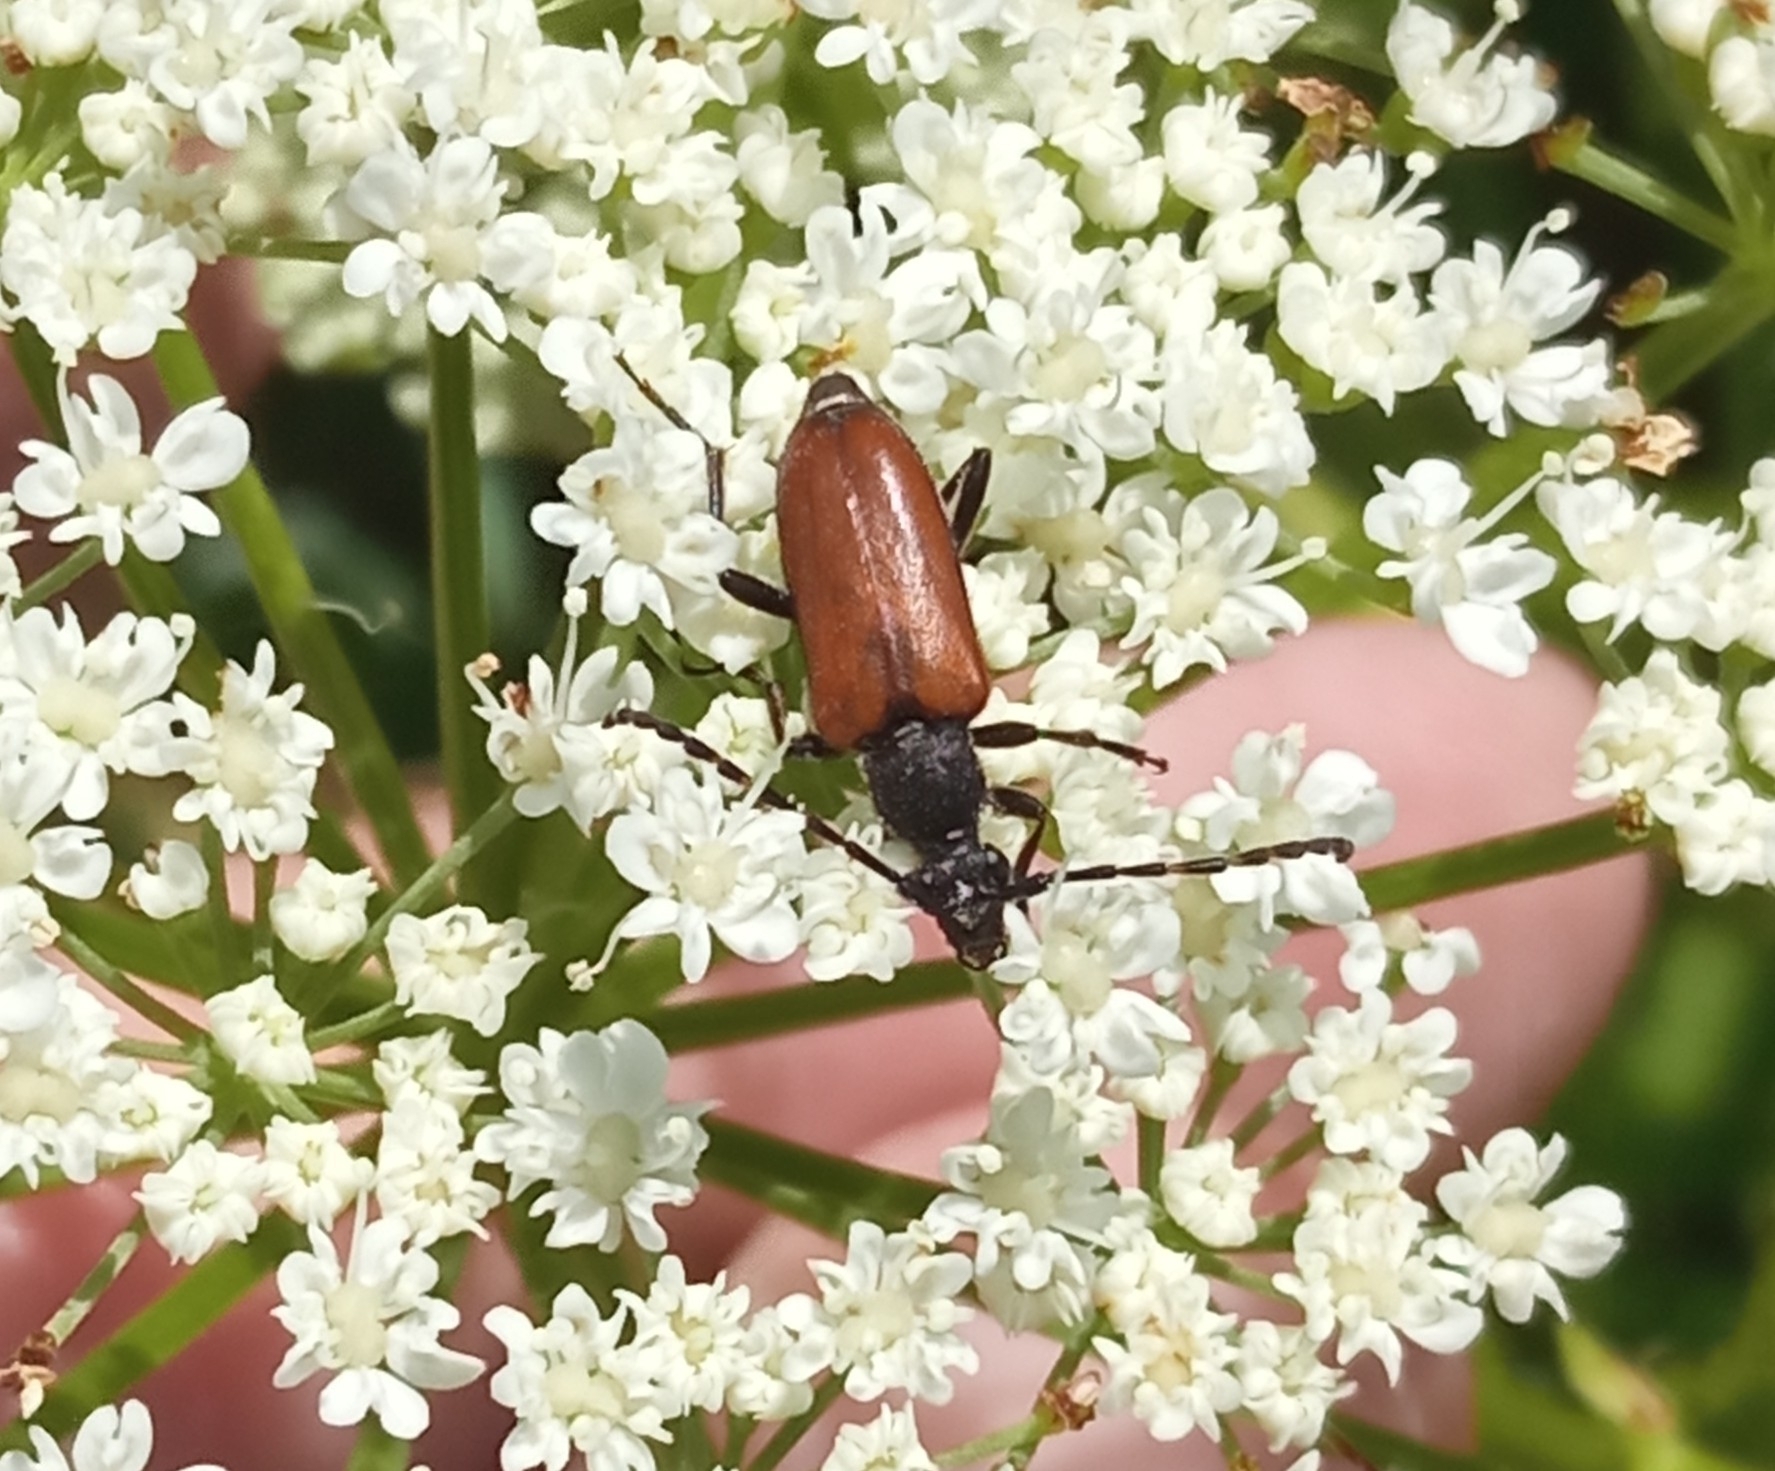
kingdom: Animalia
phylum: Arthropoda
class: Insecta
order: Coleoptera
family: Cerambycidae
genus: Paracorymbia
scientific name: Paracorymbia maculicornis
